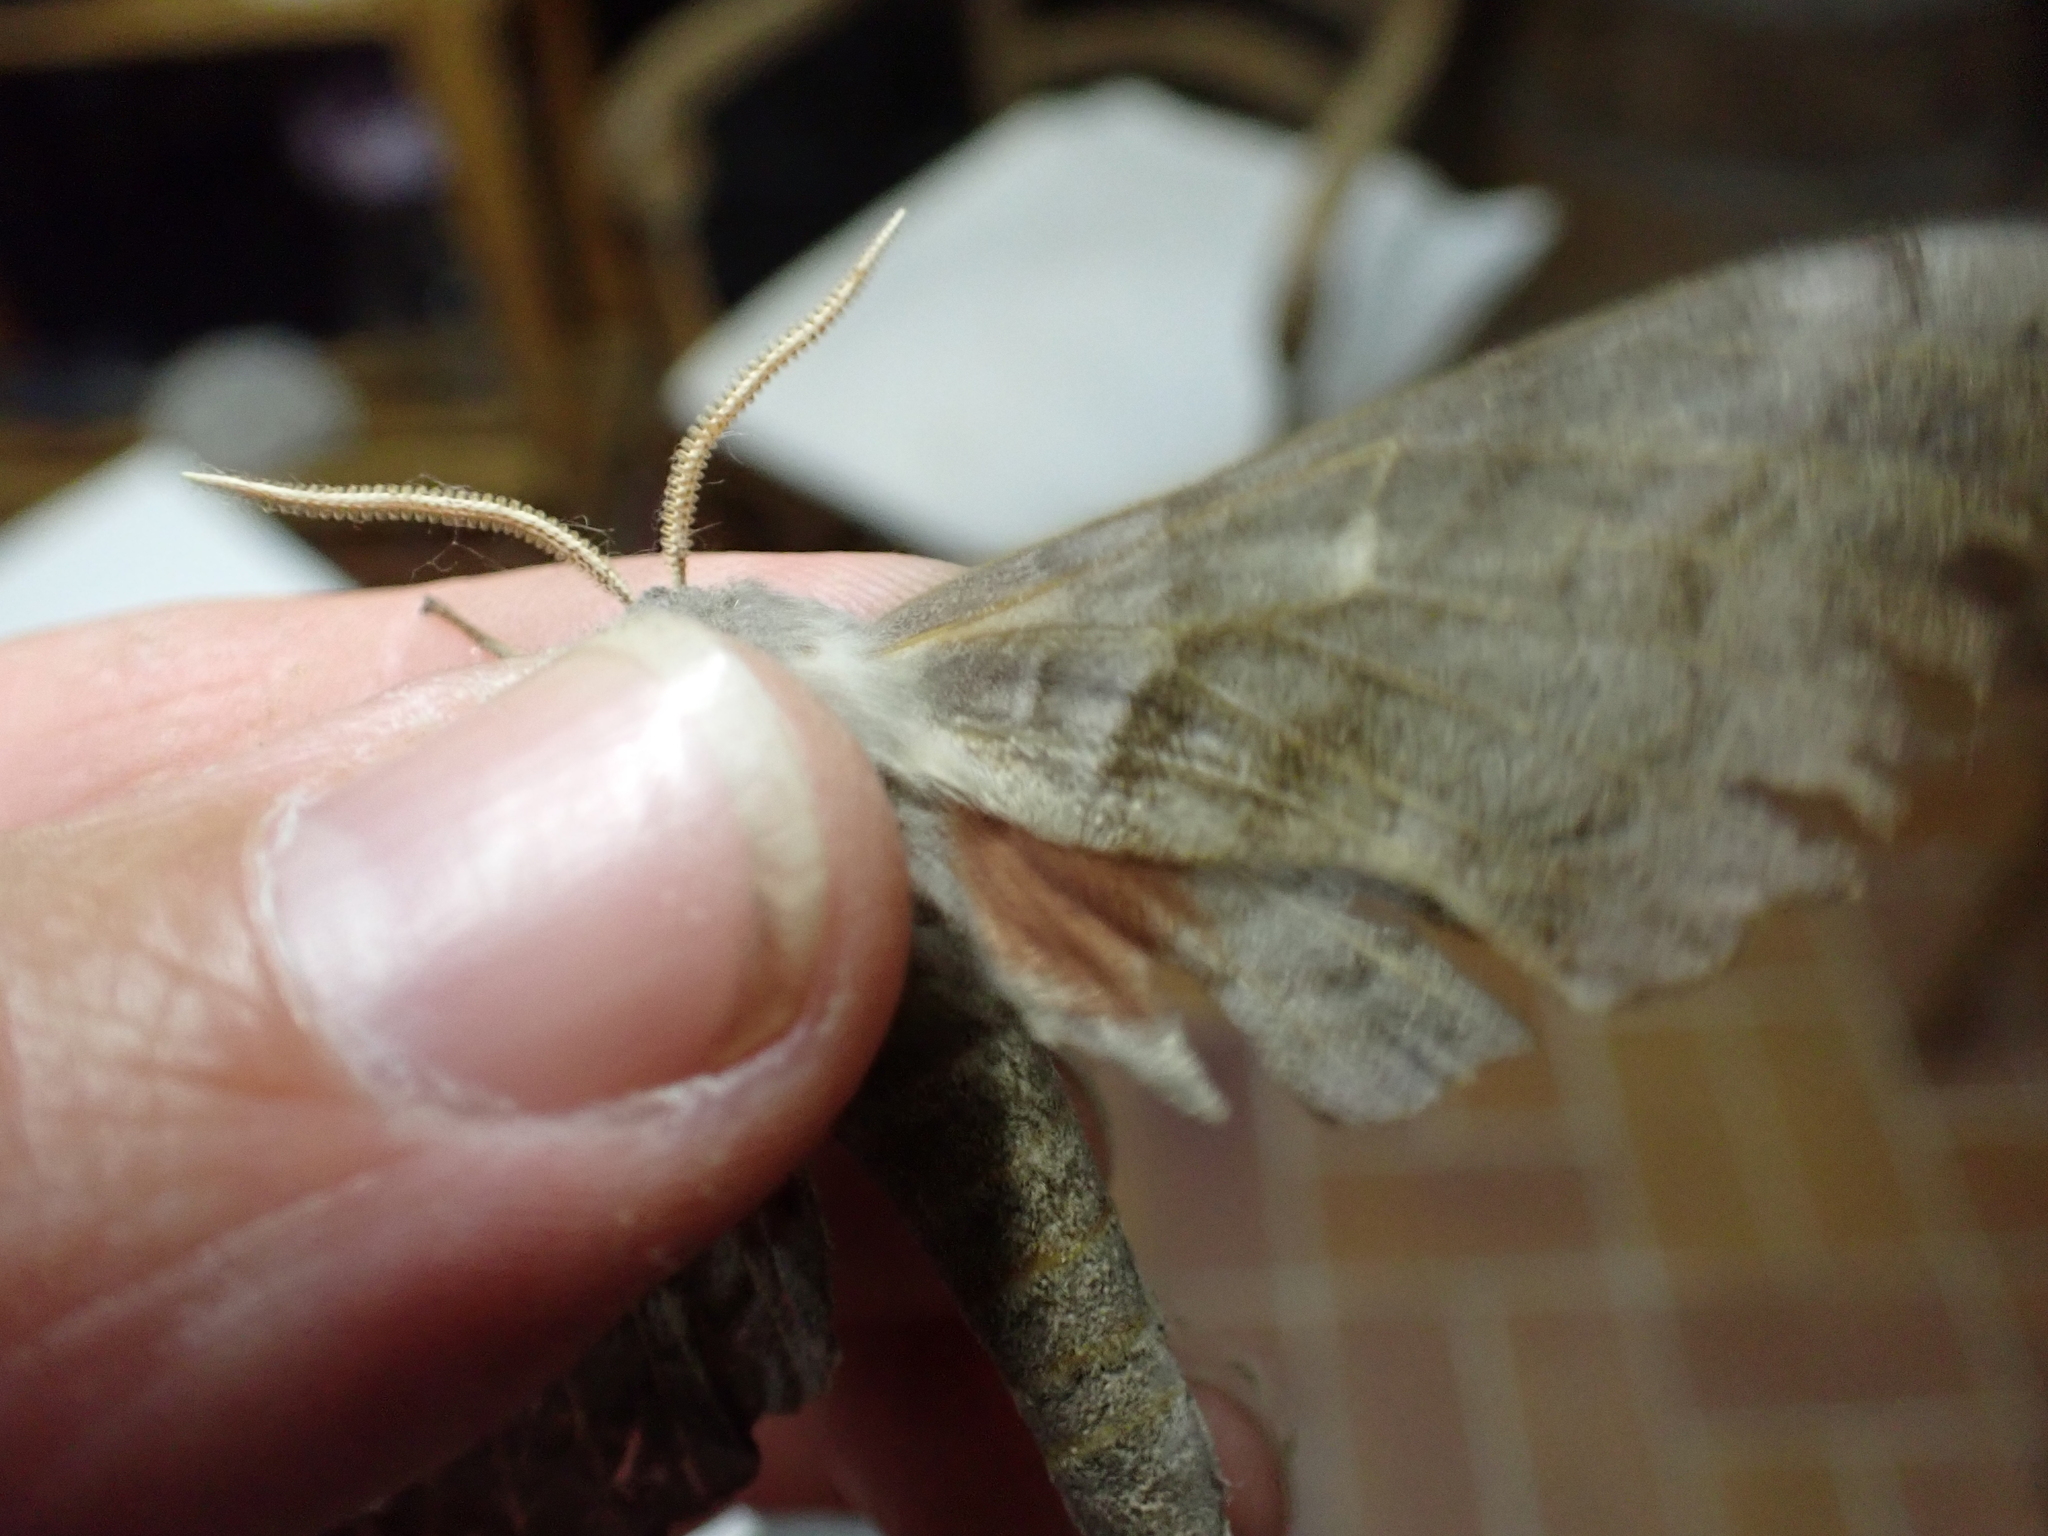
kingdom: Animalia
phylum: Arthropoda
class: Insecta
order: Lepidoptera
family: Sphingidae
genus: Laothoe
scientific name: Laothoe populi
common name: Poplar hawk-moth
